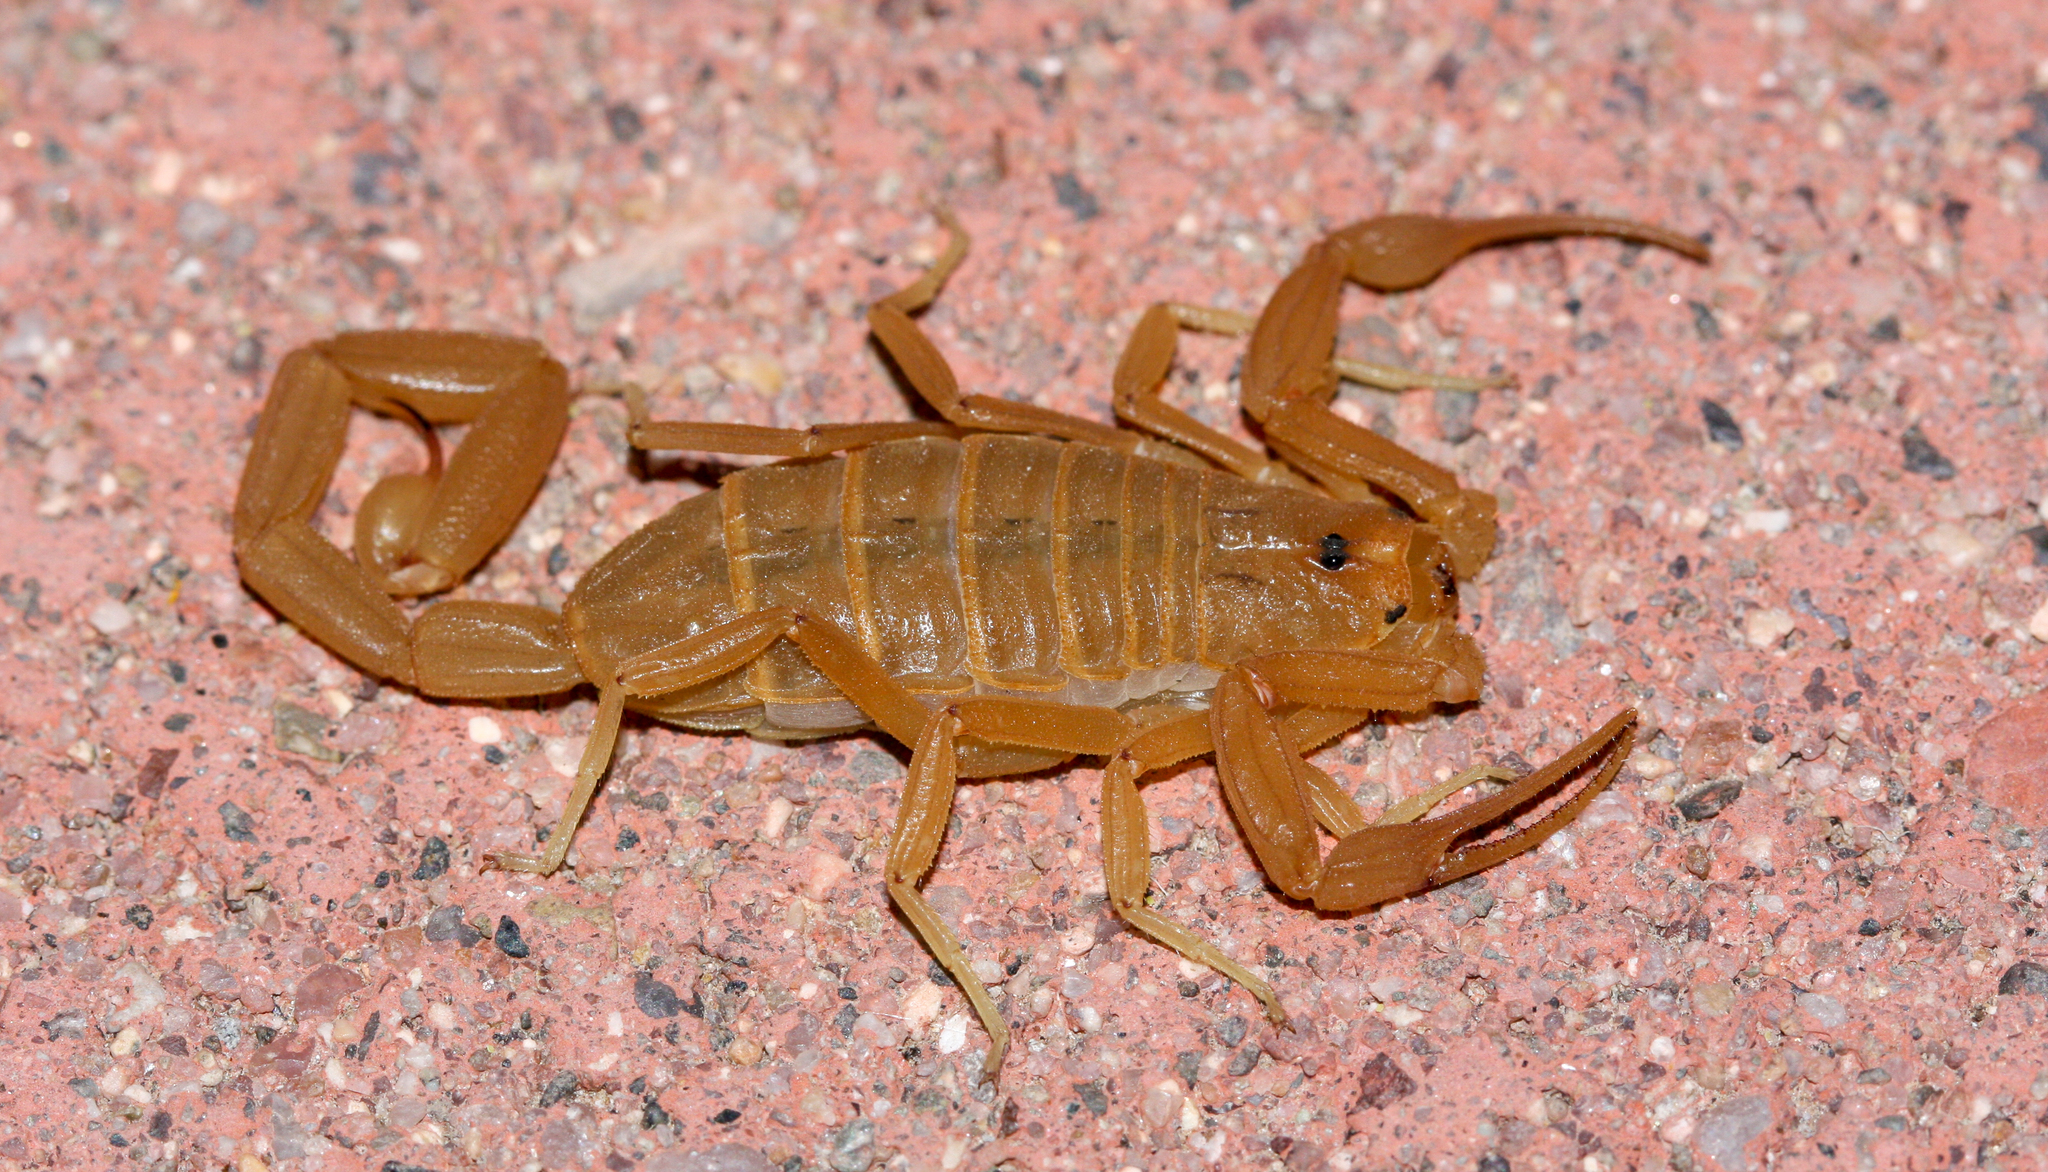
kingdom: Animalia
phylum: Arthropoda
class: Arachnida
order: Scorpiones
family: Buthidae
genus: Centruroides
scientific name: Centruroides sculpturatus
